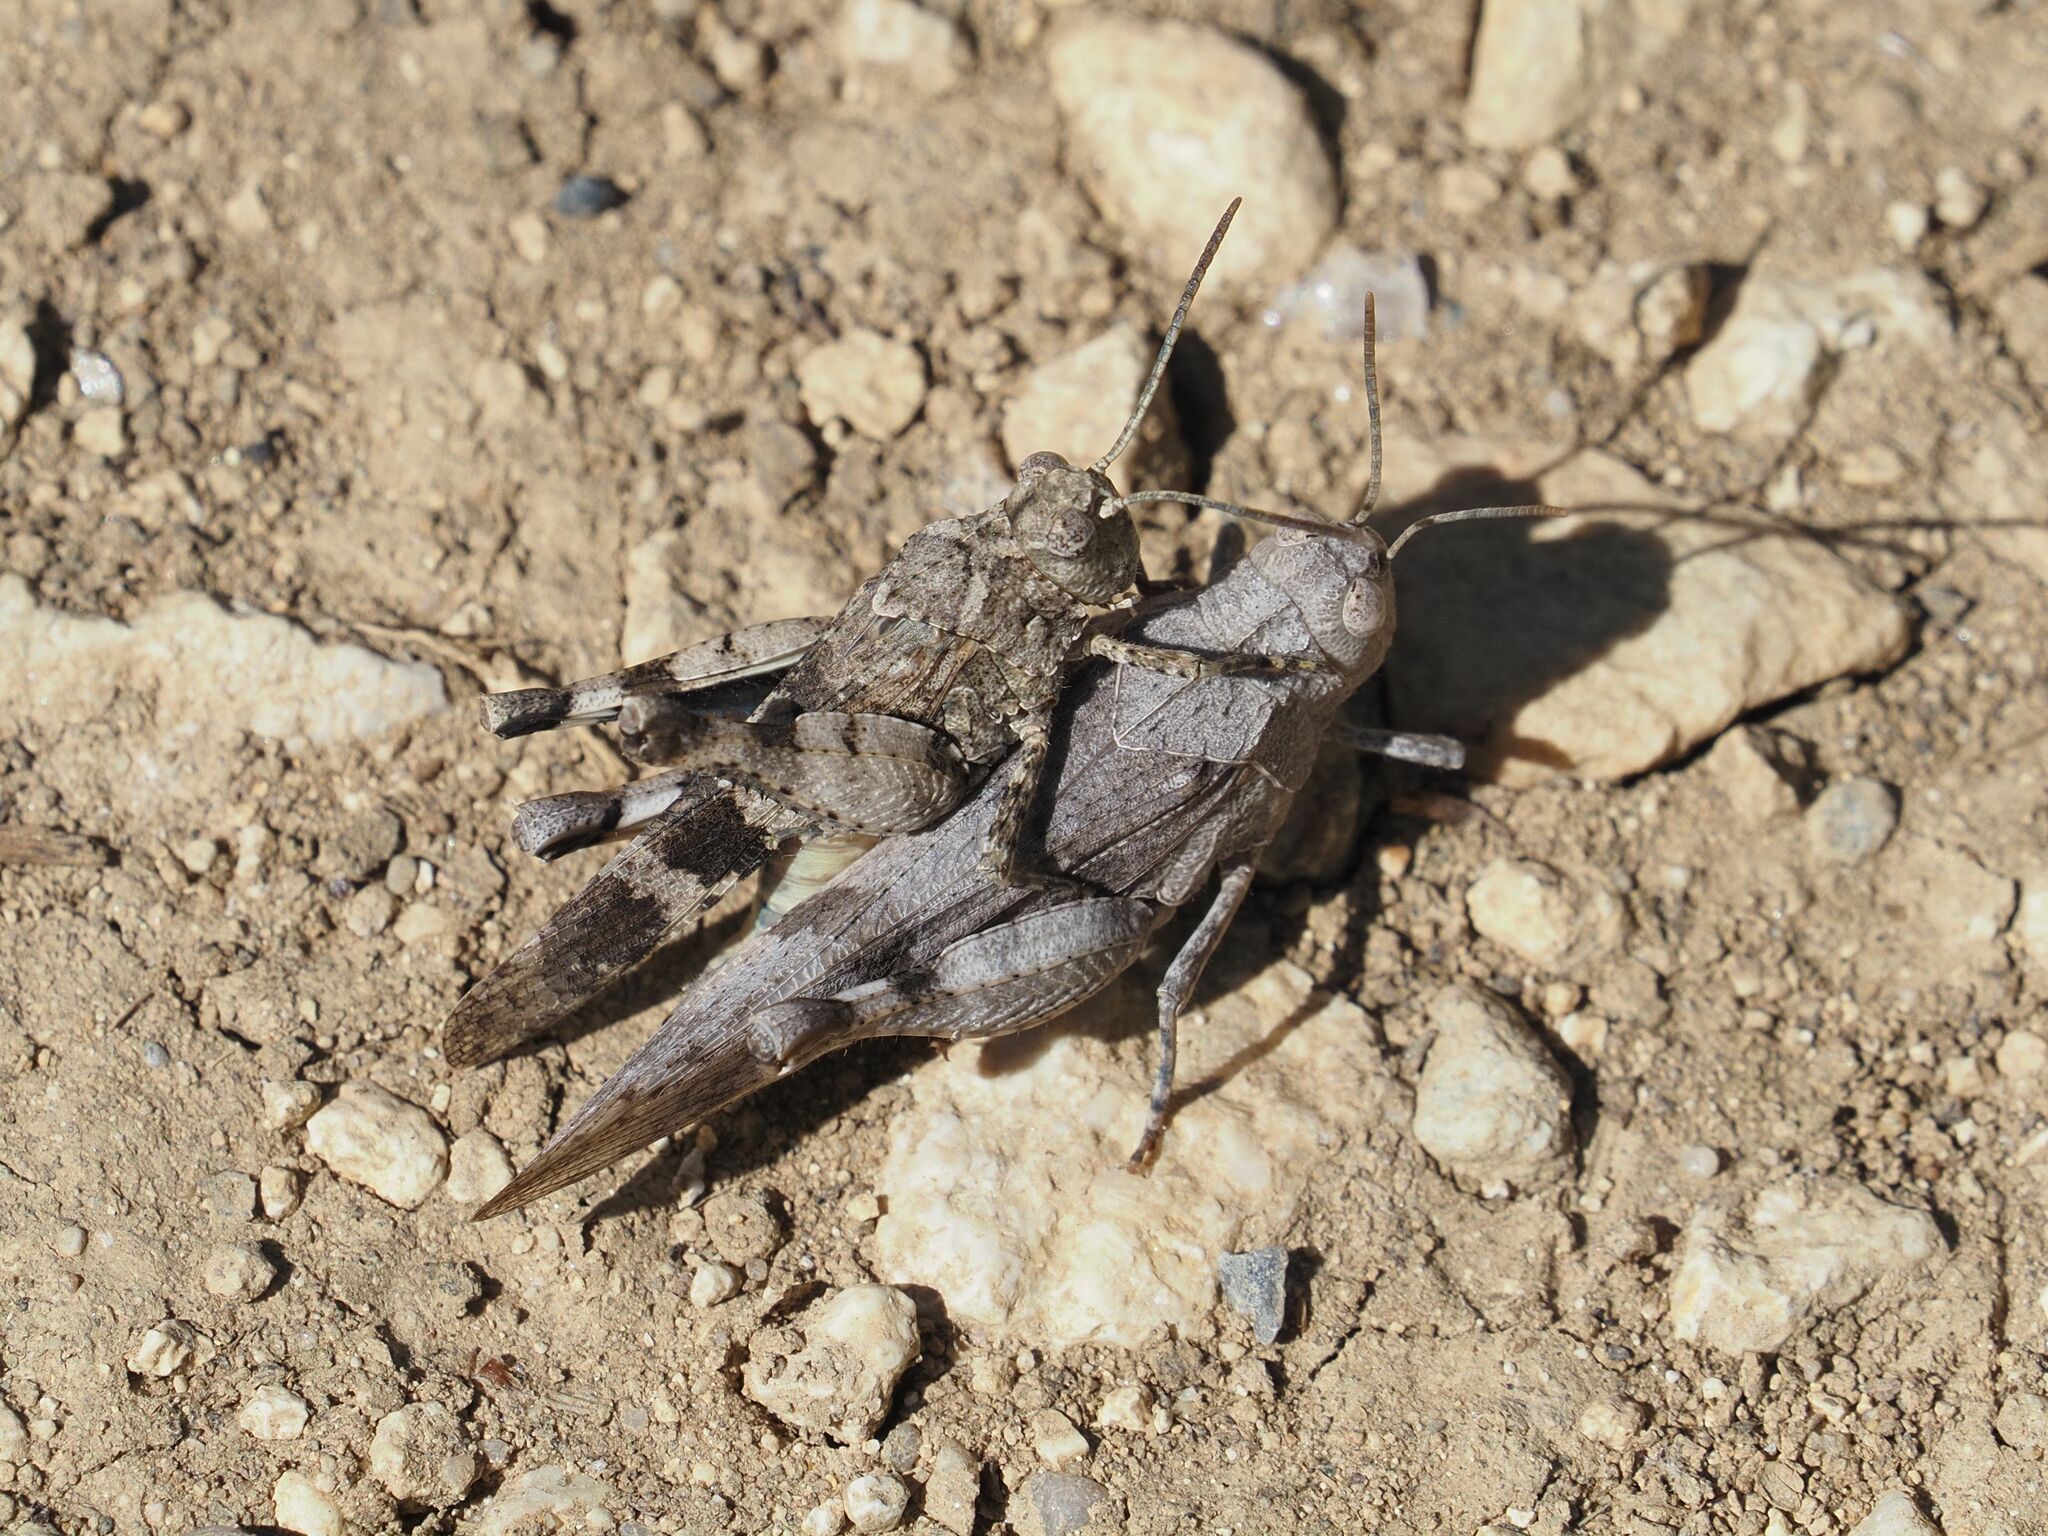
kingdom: Animalia
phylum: Arthropoda
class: Insecta
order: Orthoptera
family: Acrididae
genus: Oedipoda
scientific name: Oedipoda caerulescens
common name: Blue-winged grasshopper
